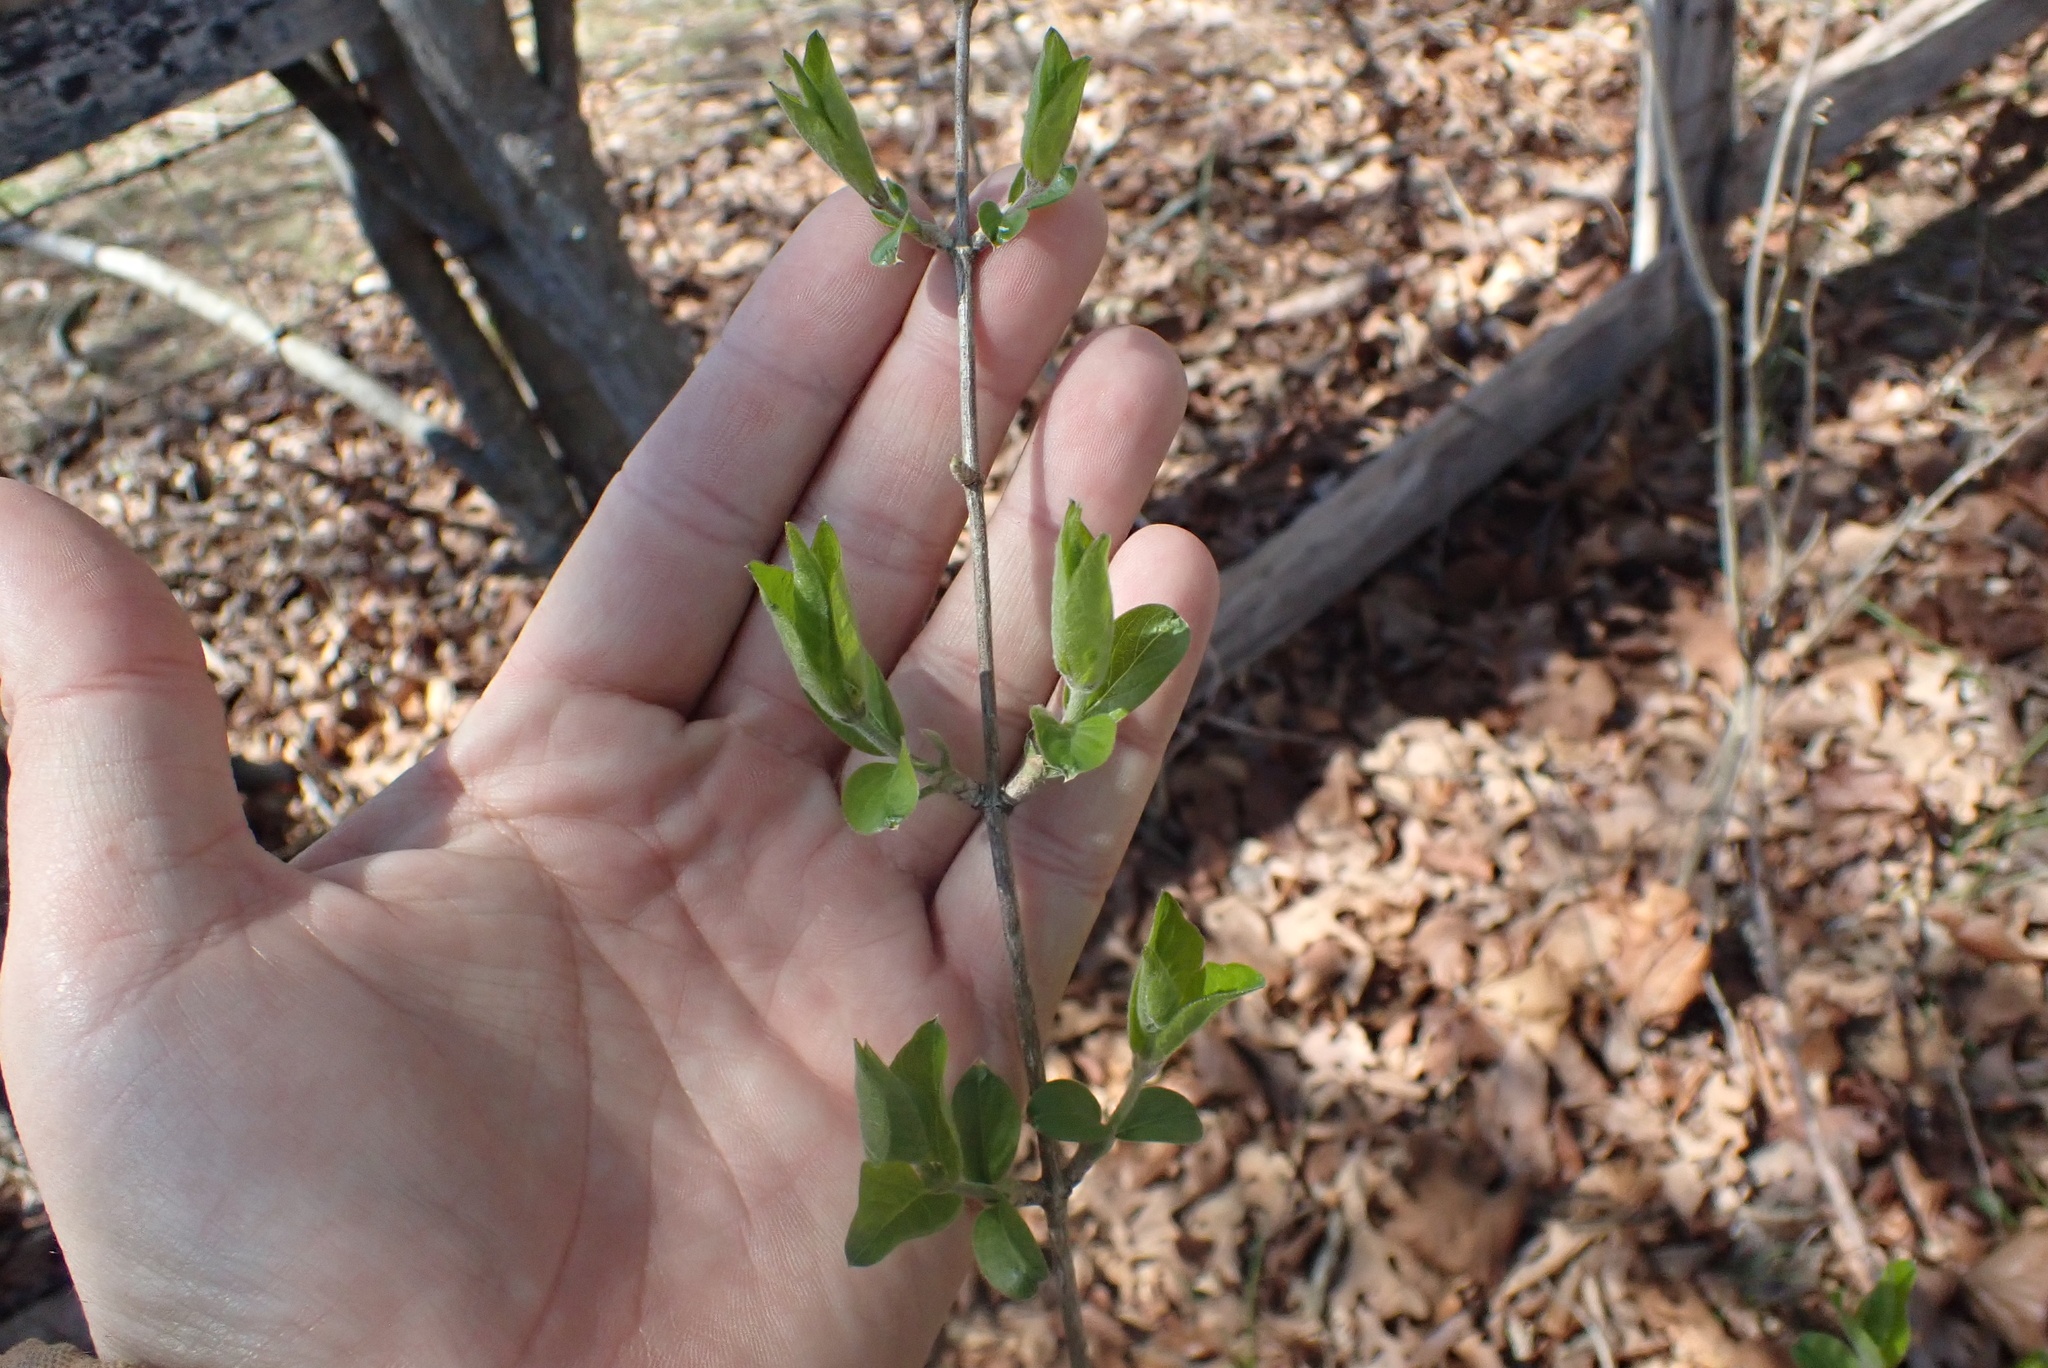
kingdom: Plantae
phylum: Tracheophyta
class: Magnoliopsida
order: Dipsacales
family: Caprifoliaceae
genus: Lonicera
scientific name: Lonicera maackii
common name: Amur honeysuckle
